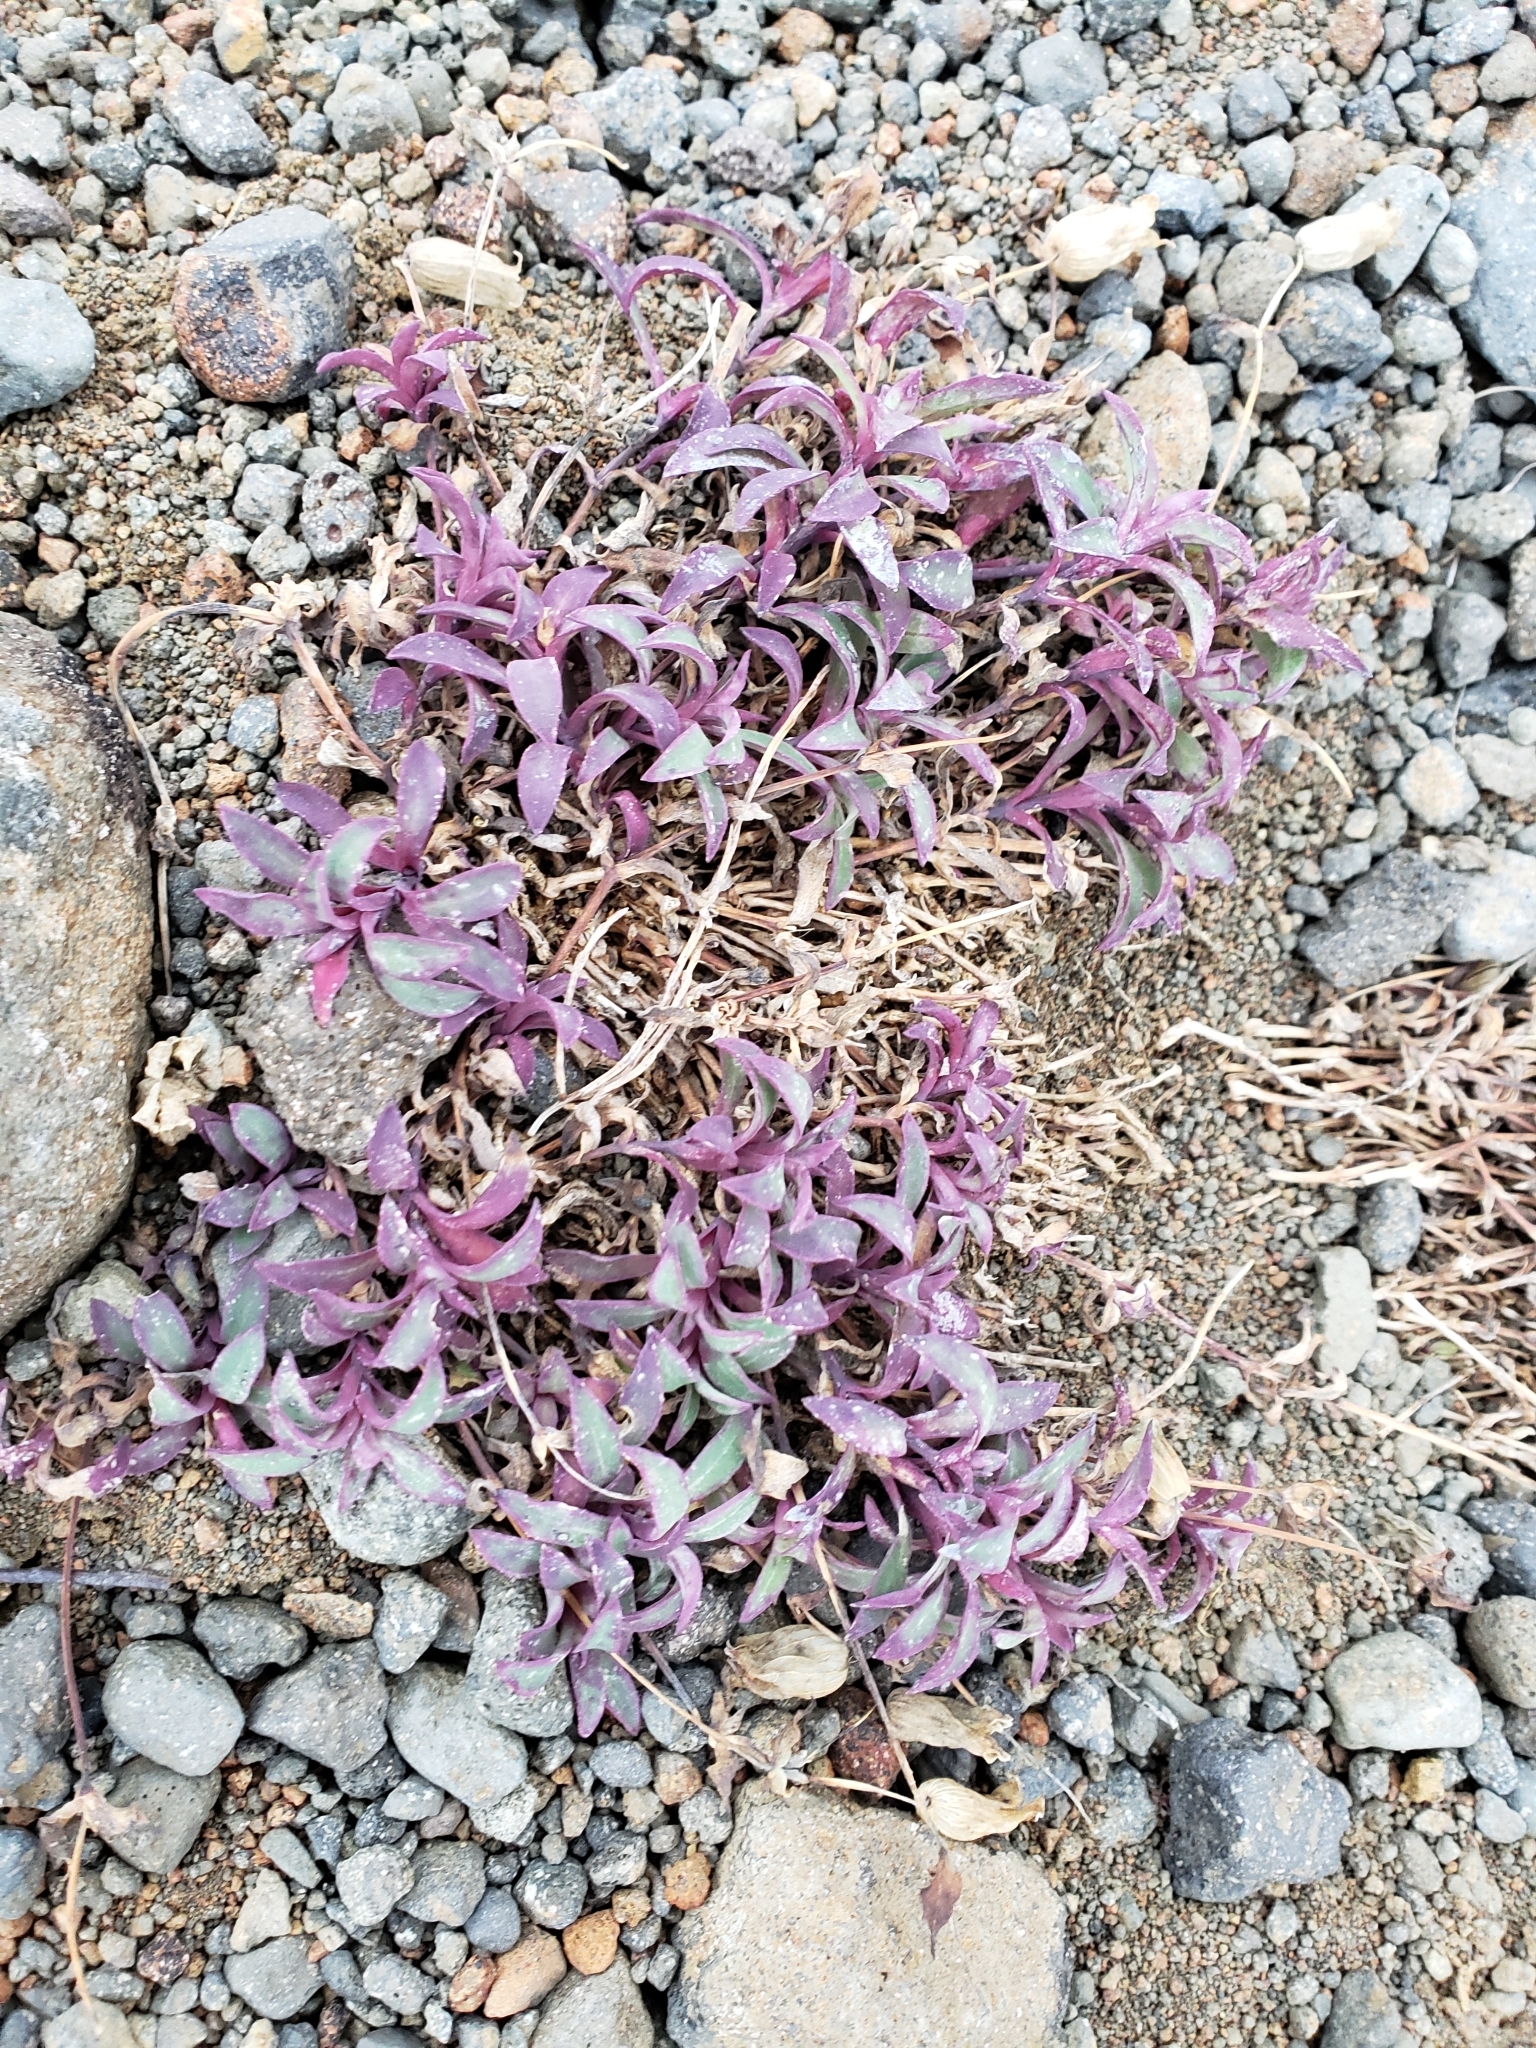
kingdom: Plantae
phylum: Tracheophyta
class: Magnoliopsida
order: Boraginales
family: Boraginaceae
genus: Mertensia
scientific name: Mertensia maritima
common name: Oysterplant
